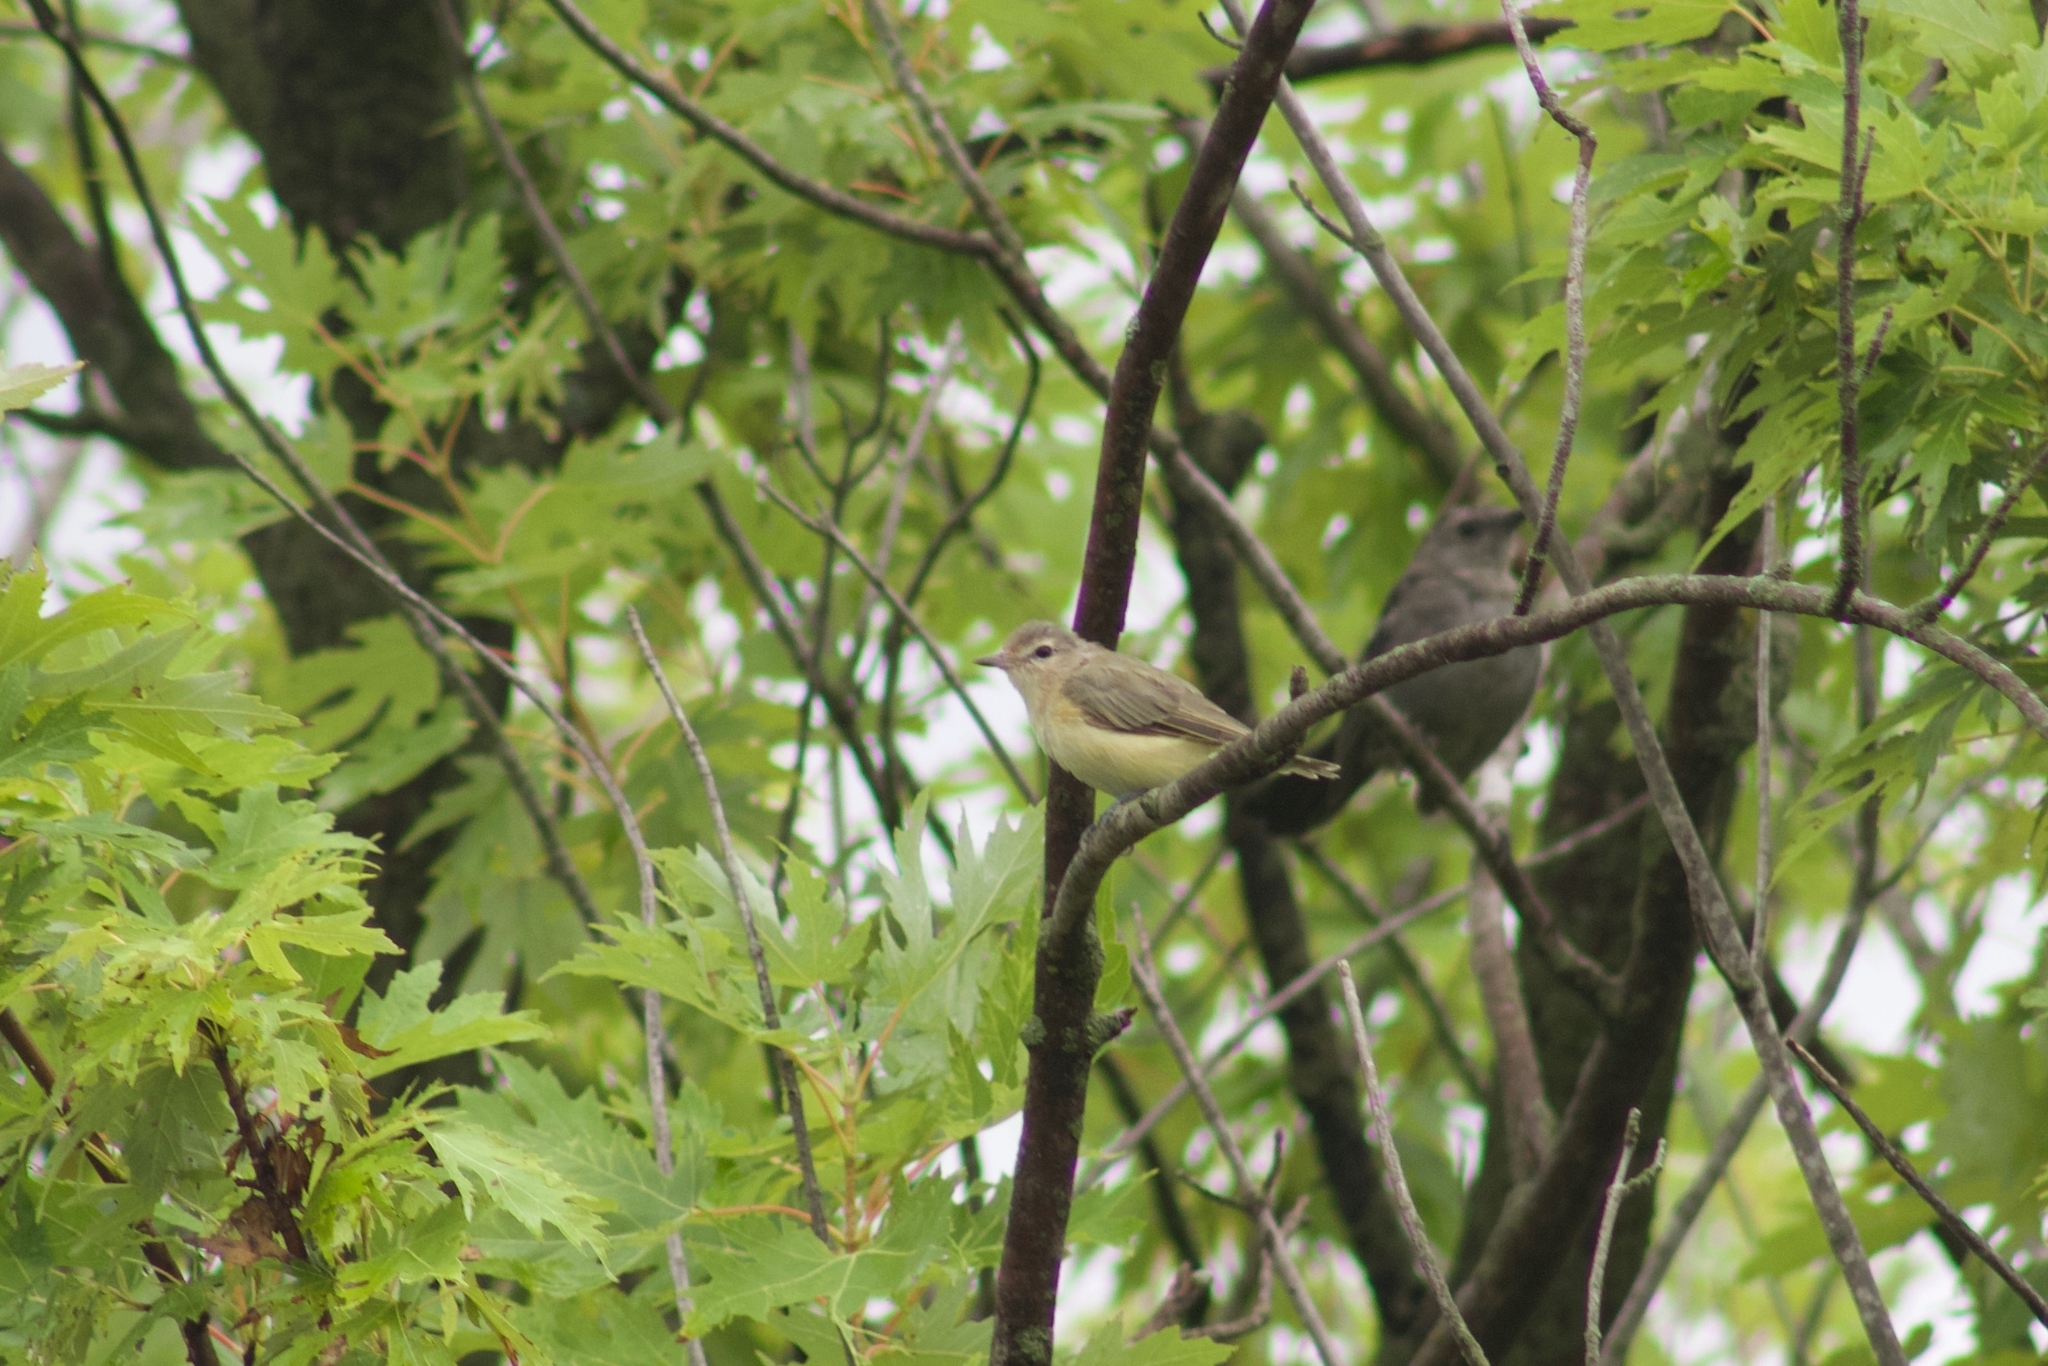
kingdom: Animalia
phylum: Chordata
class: Aves
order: Passeriformes
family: Vireonidae
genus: Vireo
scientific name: Vireo gilvus
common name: Warbling vireo
